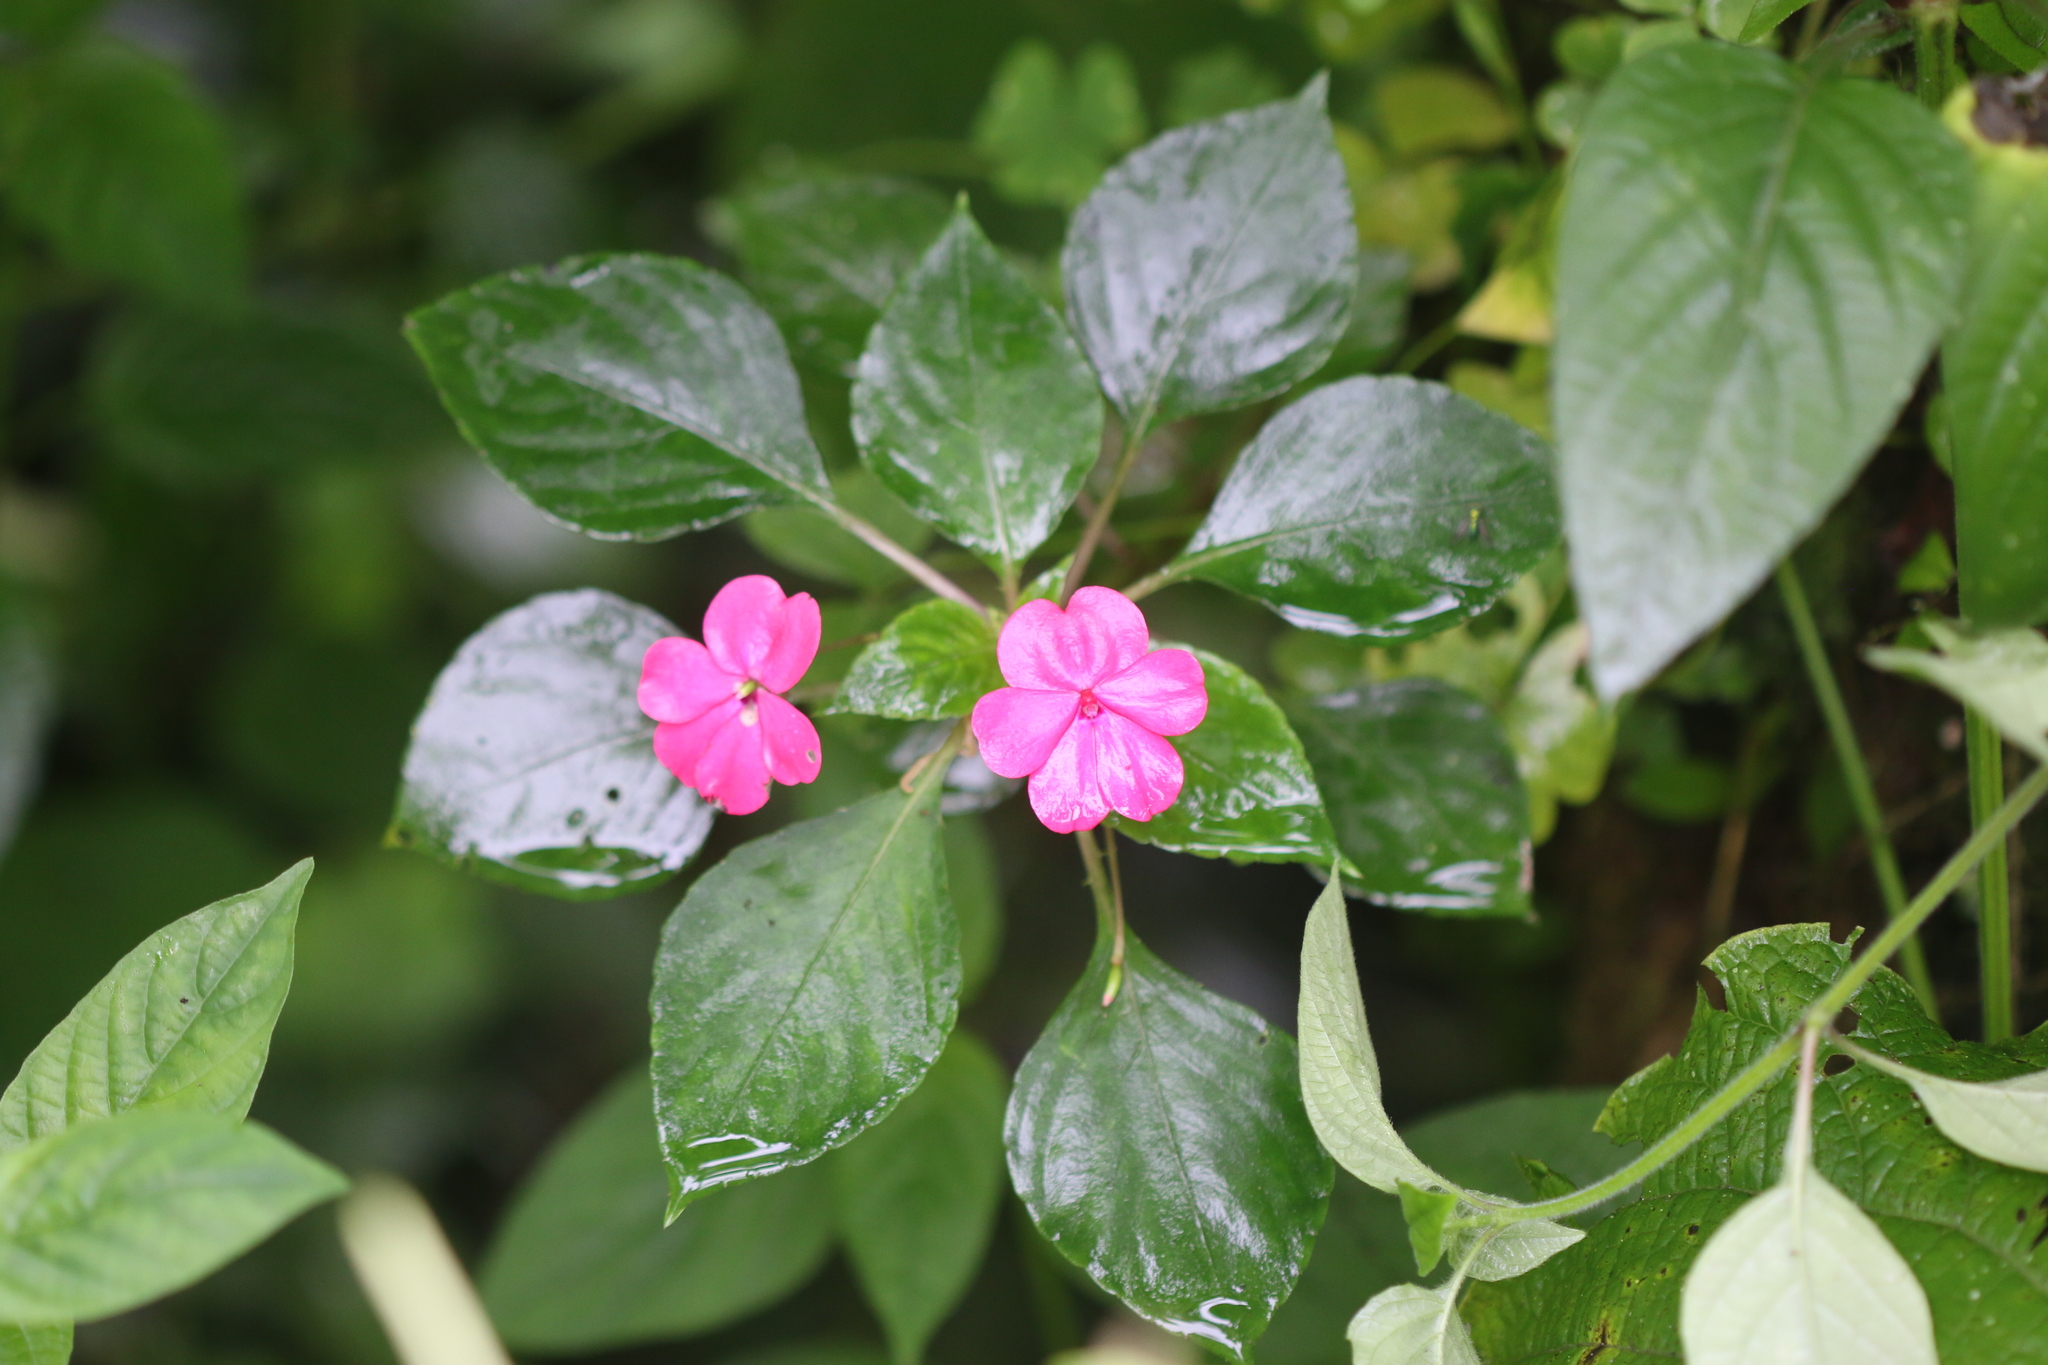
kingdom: Plantae
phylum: Tracheophyta
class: Magnoliopsida
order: Ericales
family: Balsaminaceae
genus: Impatiens
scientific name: Impatiens walleriana
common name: Buzzy lizzy
